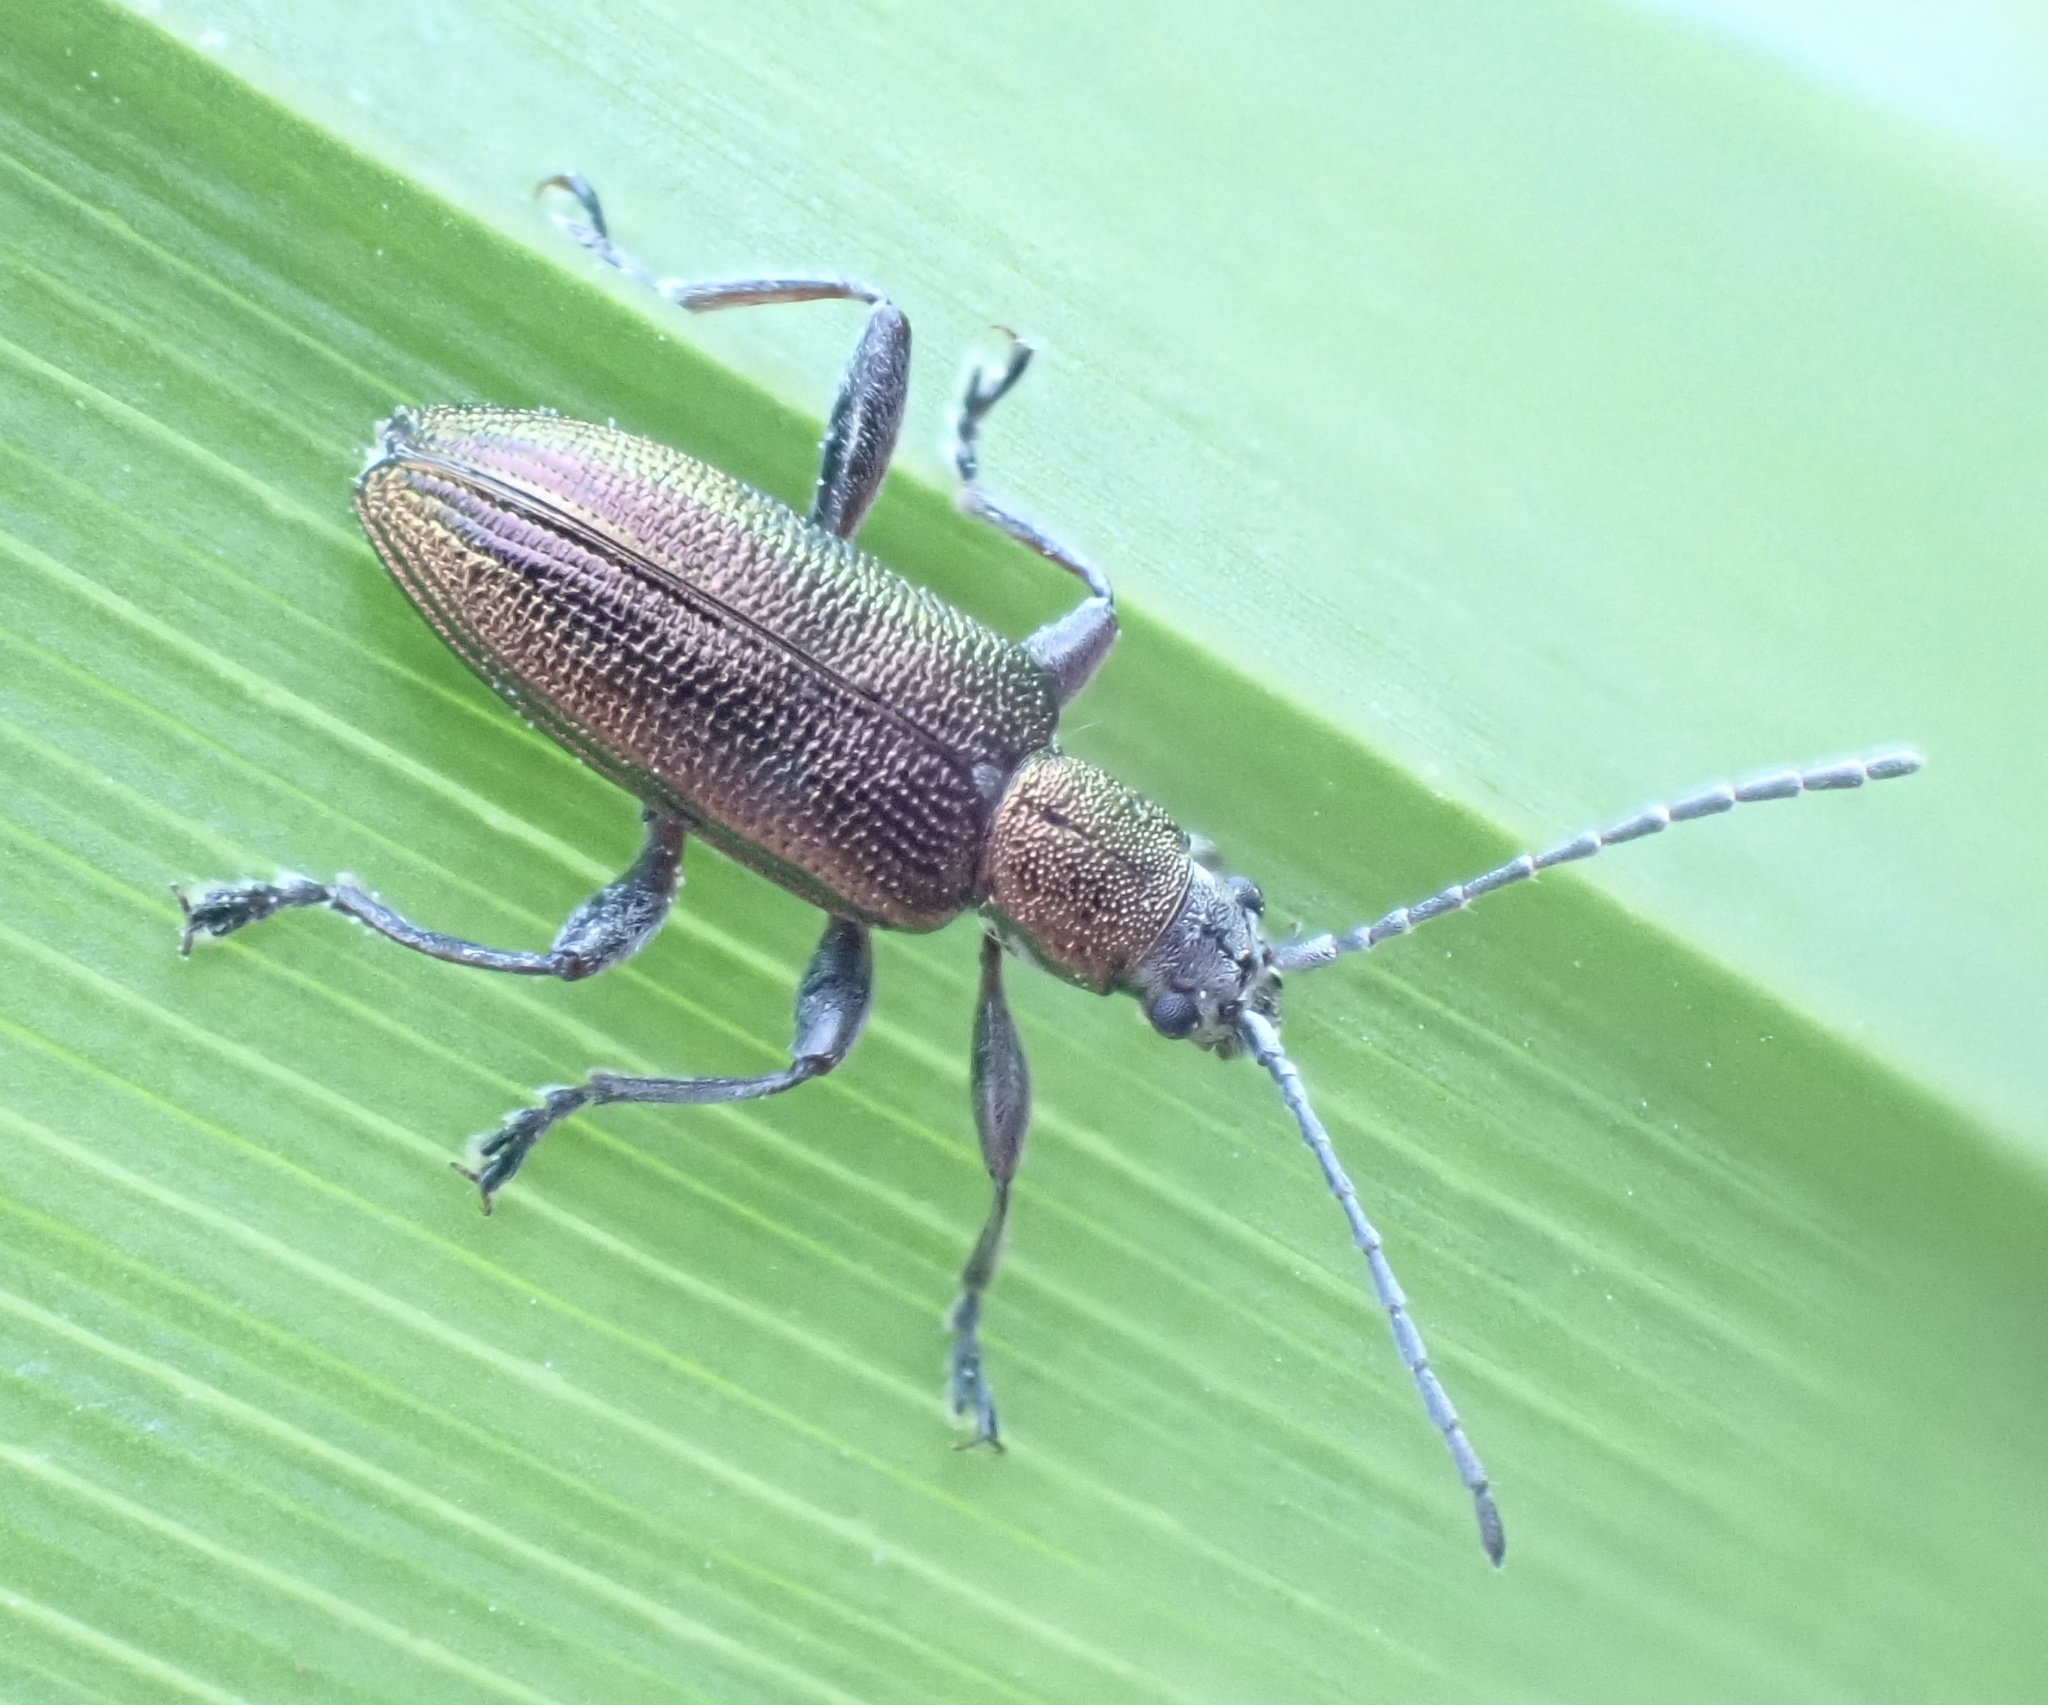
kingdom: Animalia
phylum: Arthropoda
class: Insecta
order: Coleoptera
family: Chrysomelidae
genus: Donacia
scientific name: Donacia semicuprea
